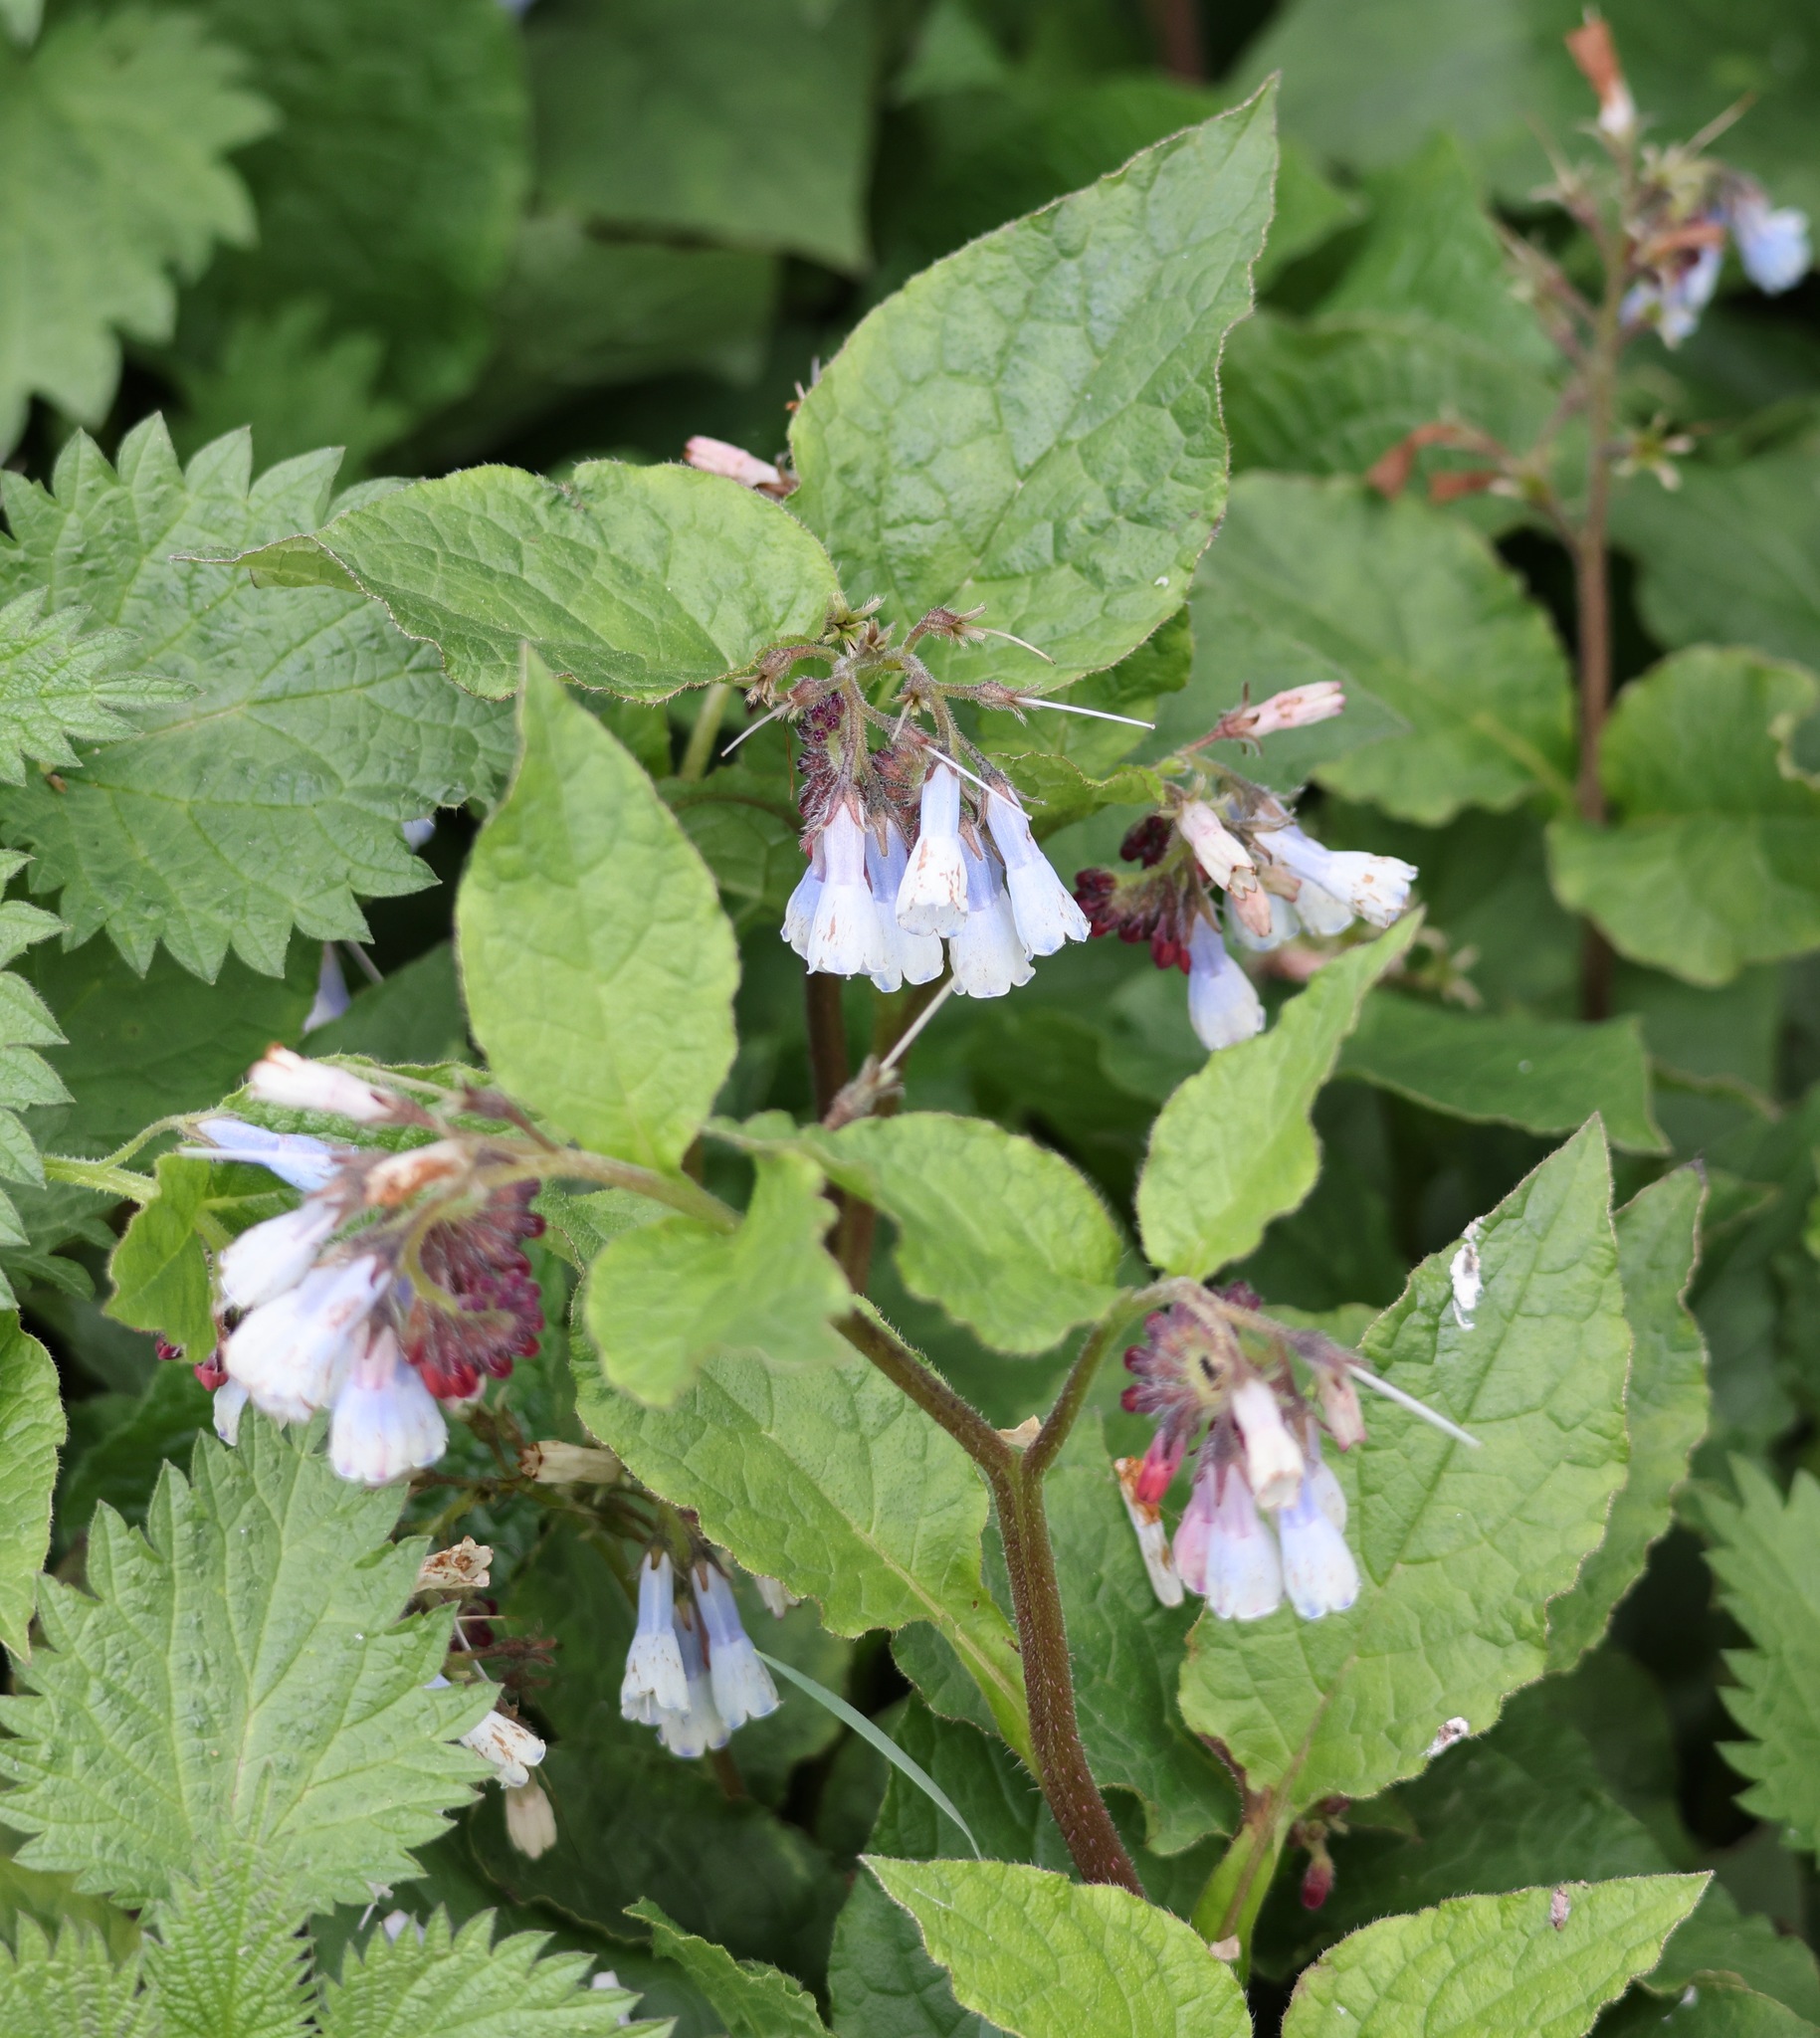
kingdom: Plantae
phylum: Tracheophyta
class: Magnoliopsida
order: Boraginales
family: Boraginaceae
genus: Symphytum
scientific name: Symphytum hidcotense
